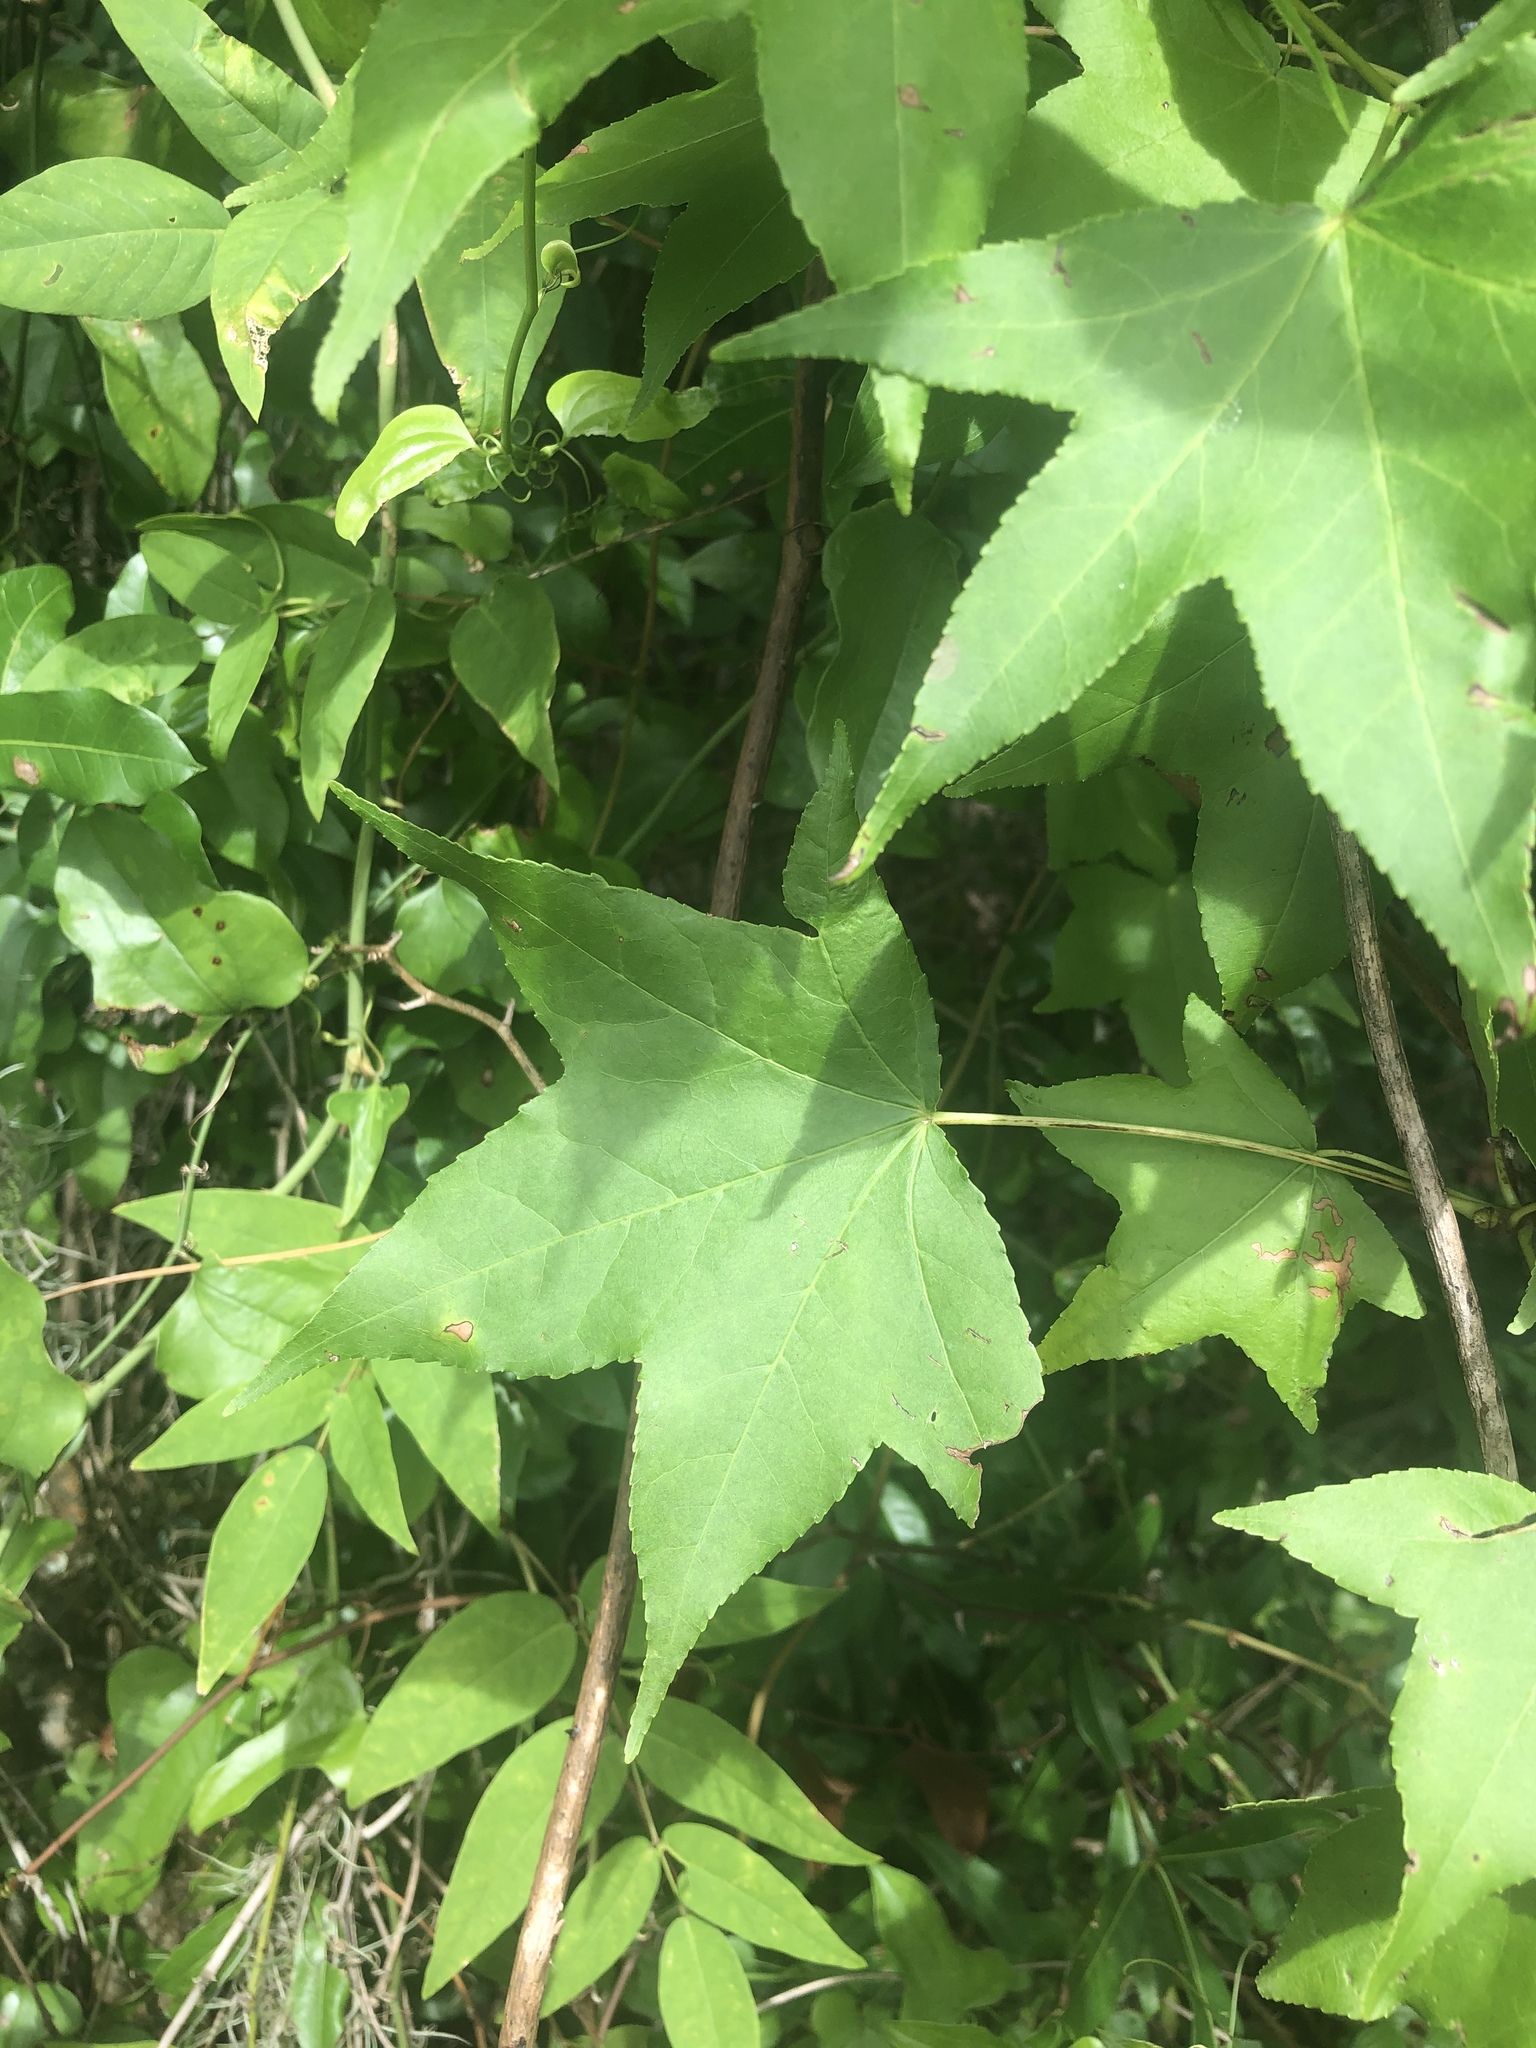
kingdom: Plantae
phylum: Tracheophyta
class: Magnoliopsida
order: Saxifragales
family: Altingiaceae
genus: Liquidambar
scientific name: Liquidambar styraciflua
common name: Sweet gum
